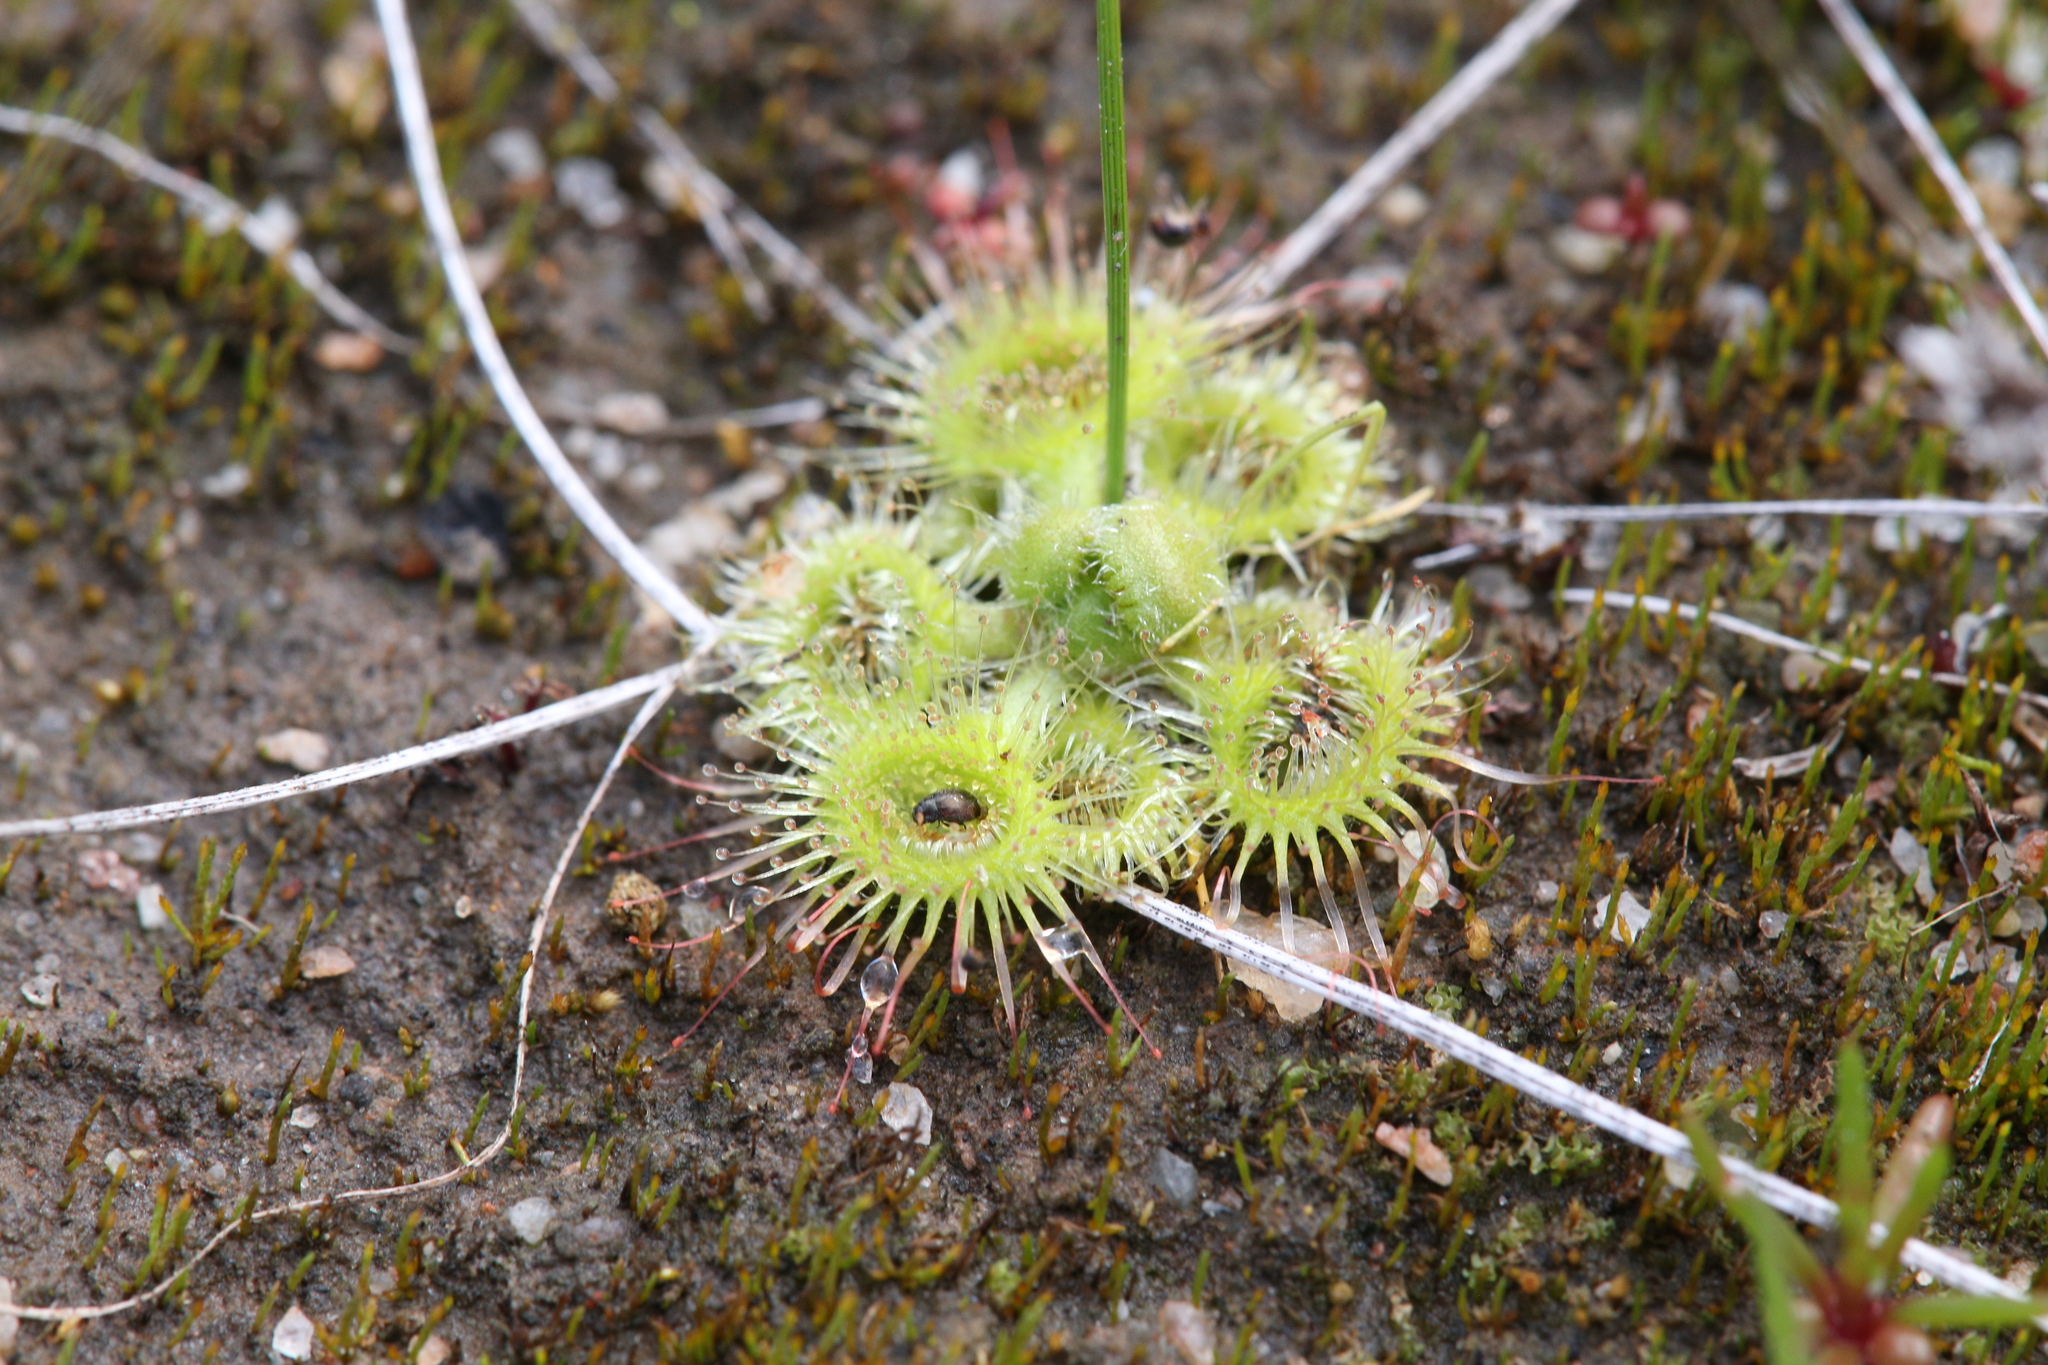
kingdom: Plantae
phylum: Tracheophyta
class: Magnoliopsida
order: Caryophyllales
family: Droseraceae
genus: Drosera
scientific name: Drosera glanduligera
